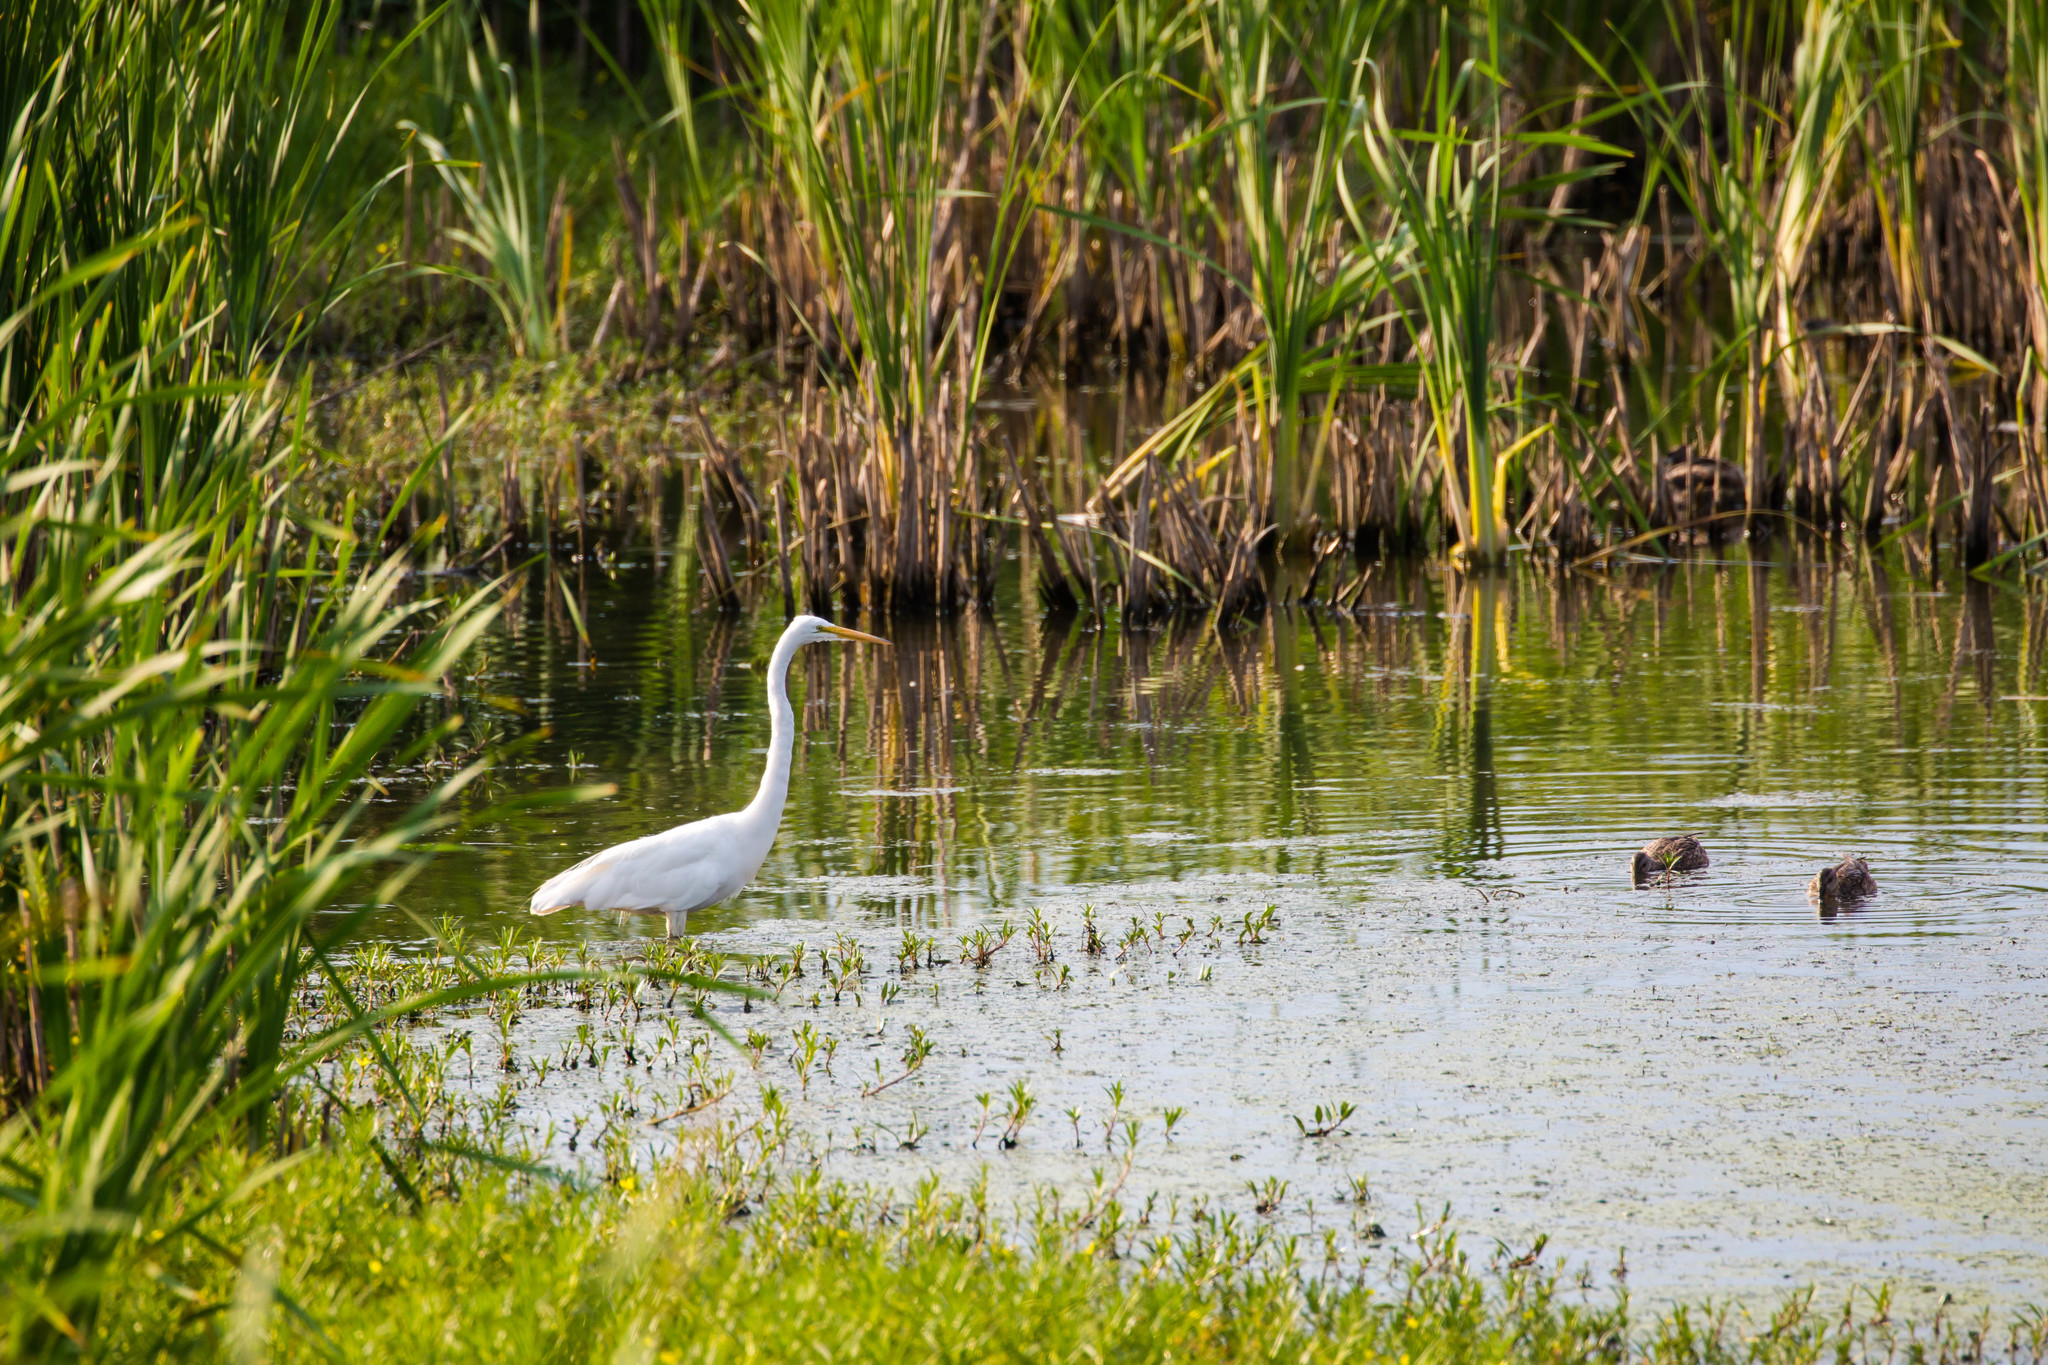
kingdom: Animalia
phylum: Chordata
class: Aves
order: Pelecaniformes
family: Ardeidae
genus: Ardea
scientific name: Ardea alba
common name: Great egret
